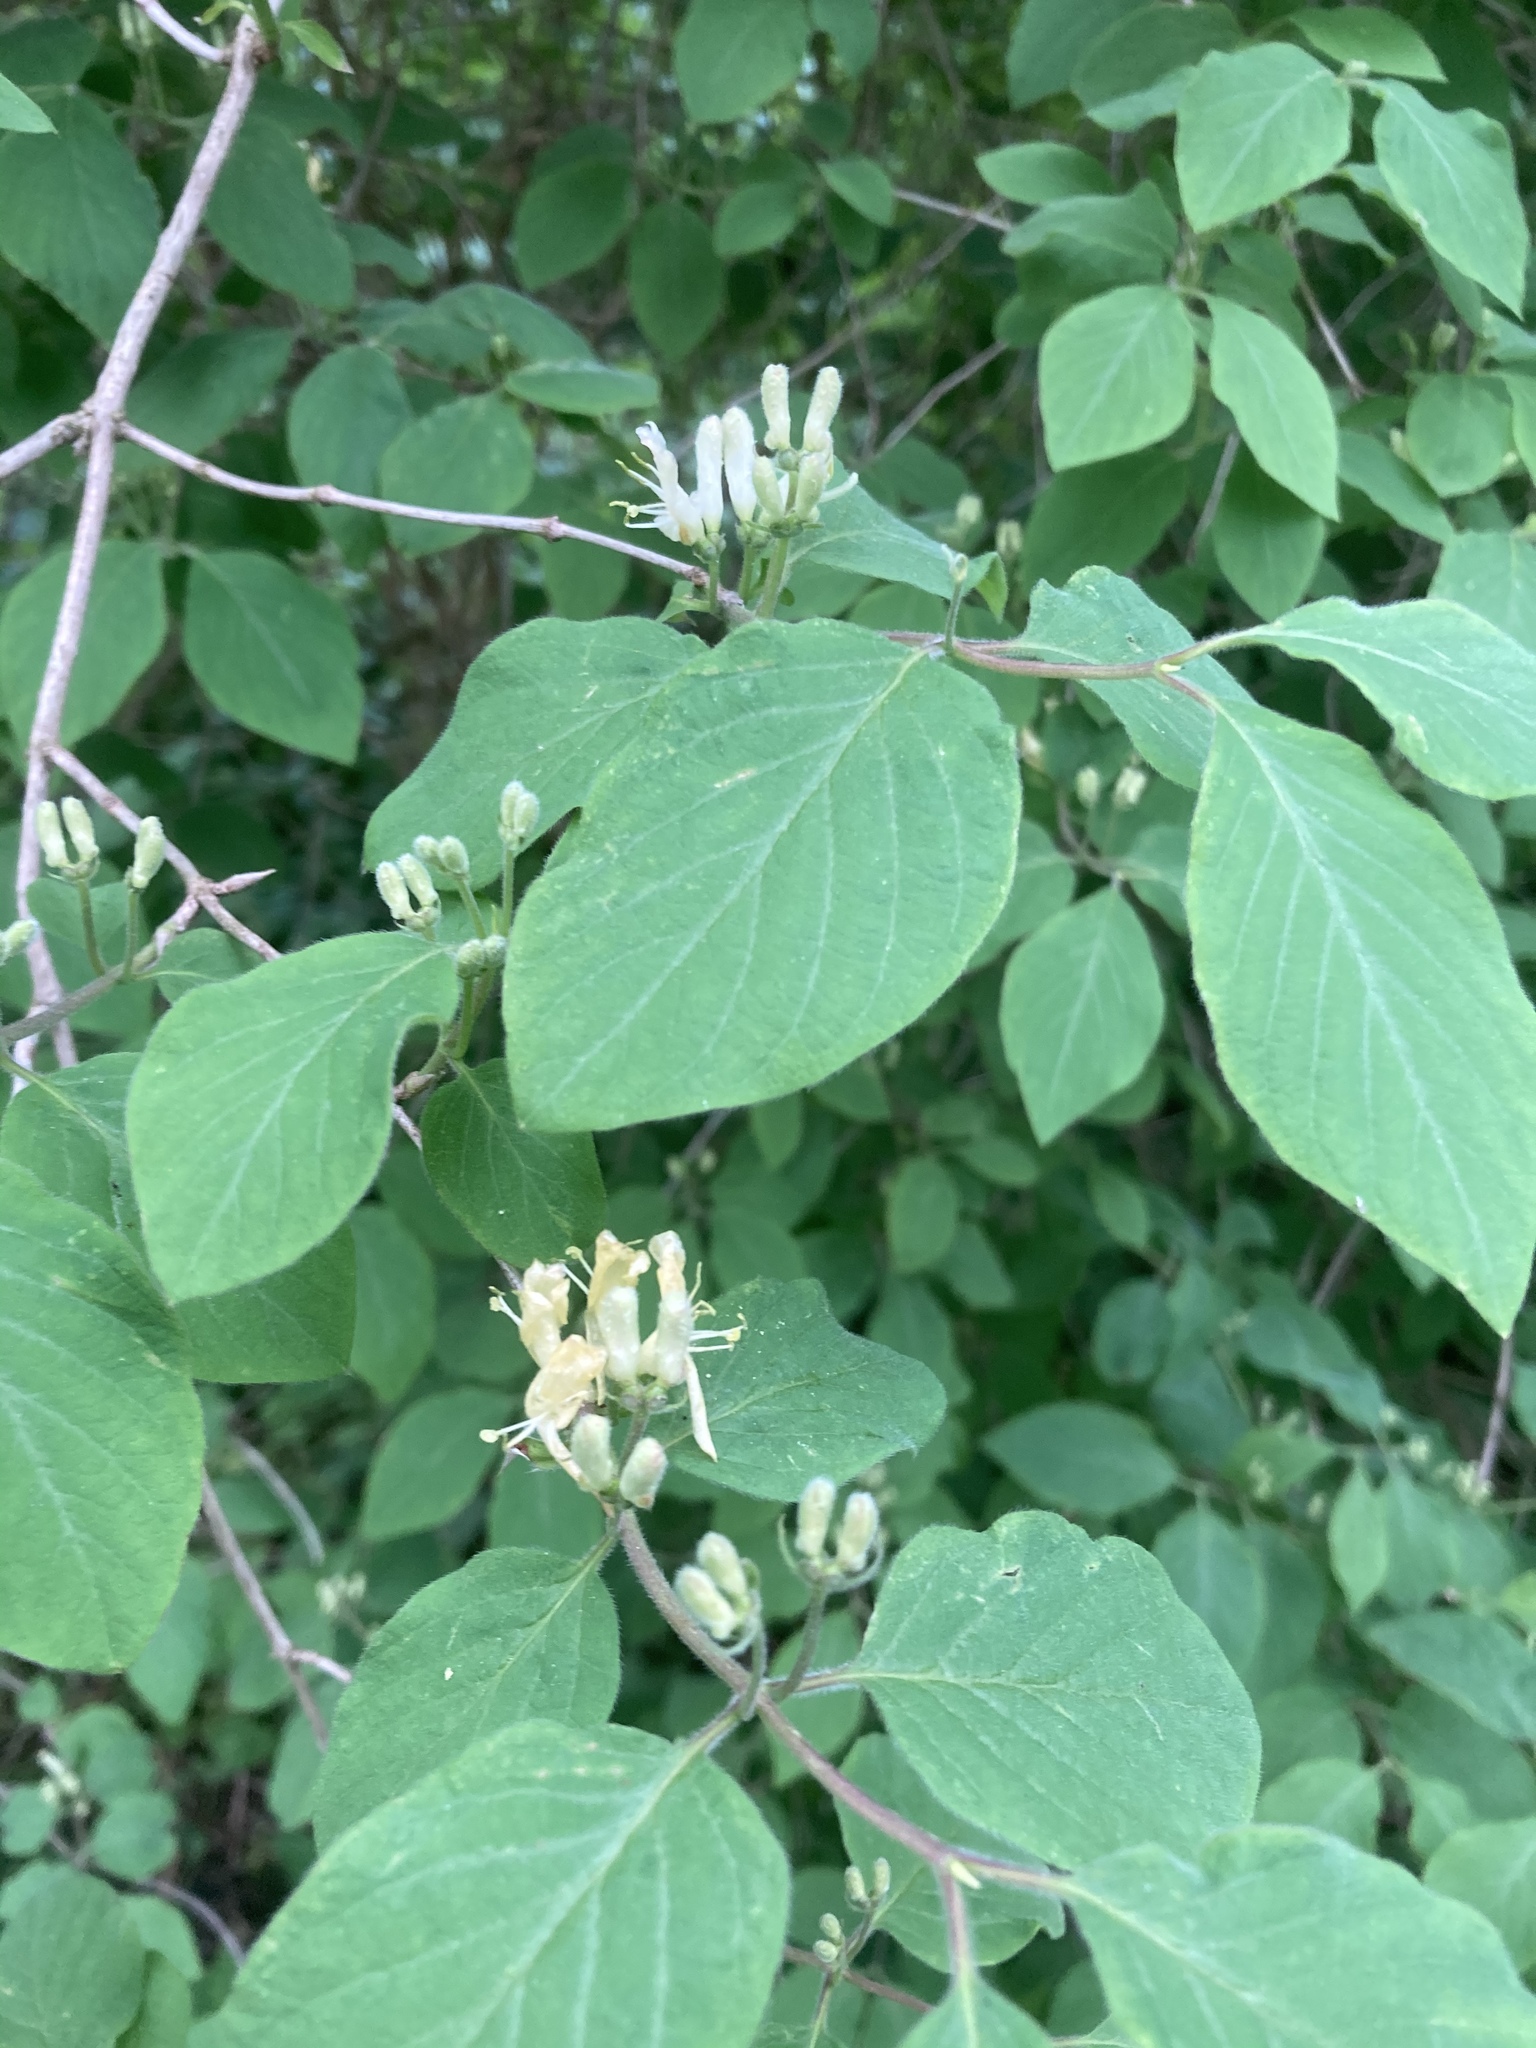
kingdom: Plantae
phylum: Tracheophyta
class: Magnoliopsida
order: Dipsacales
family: Caprifoliaceae
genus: Lonicera
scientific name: Lonicera xylosteum
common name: Fly honeysuckle
